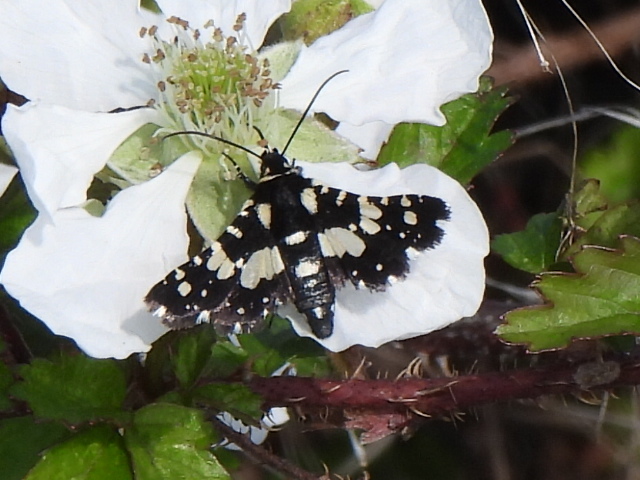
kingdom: Animalia
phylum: Arthropoda
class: Insecta
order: Lepidoptera
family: Thyrididae
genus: Pseudothyris
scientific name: Pseudothyris sepulchralis
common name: Mournful thyris moth
